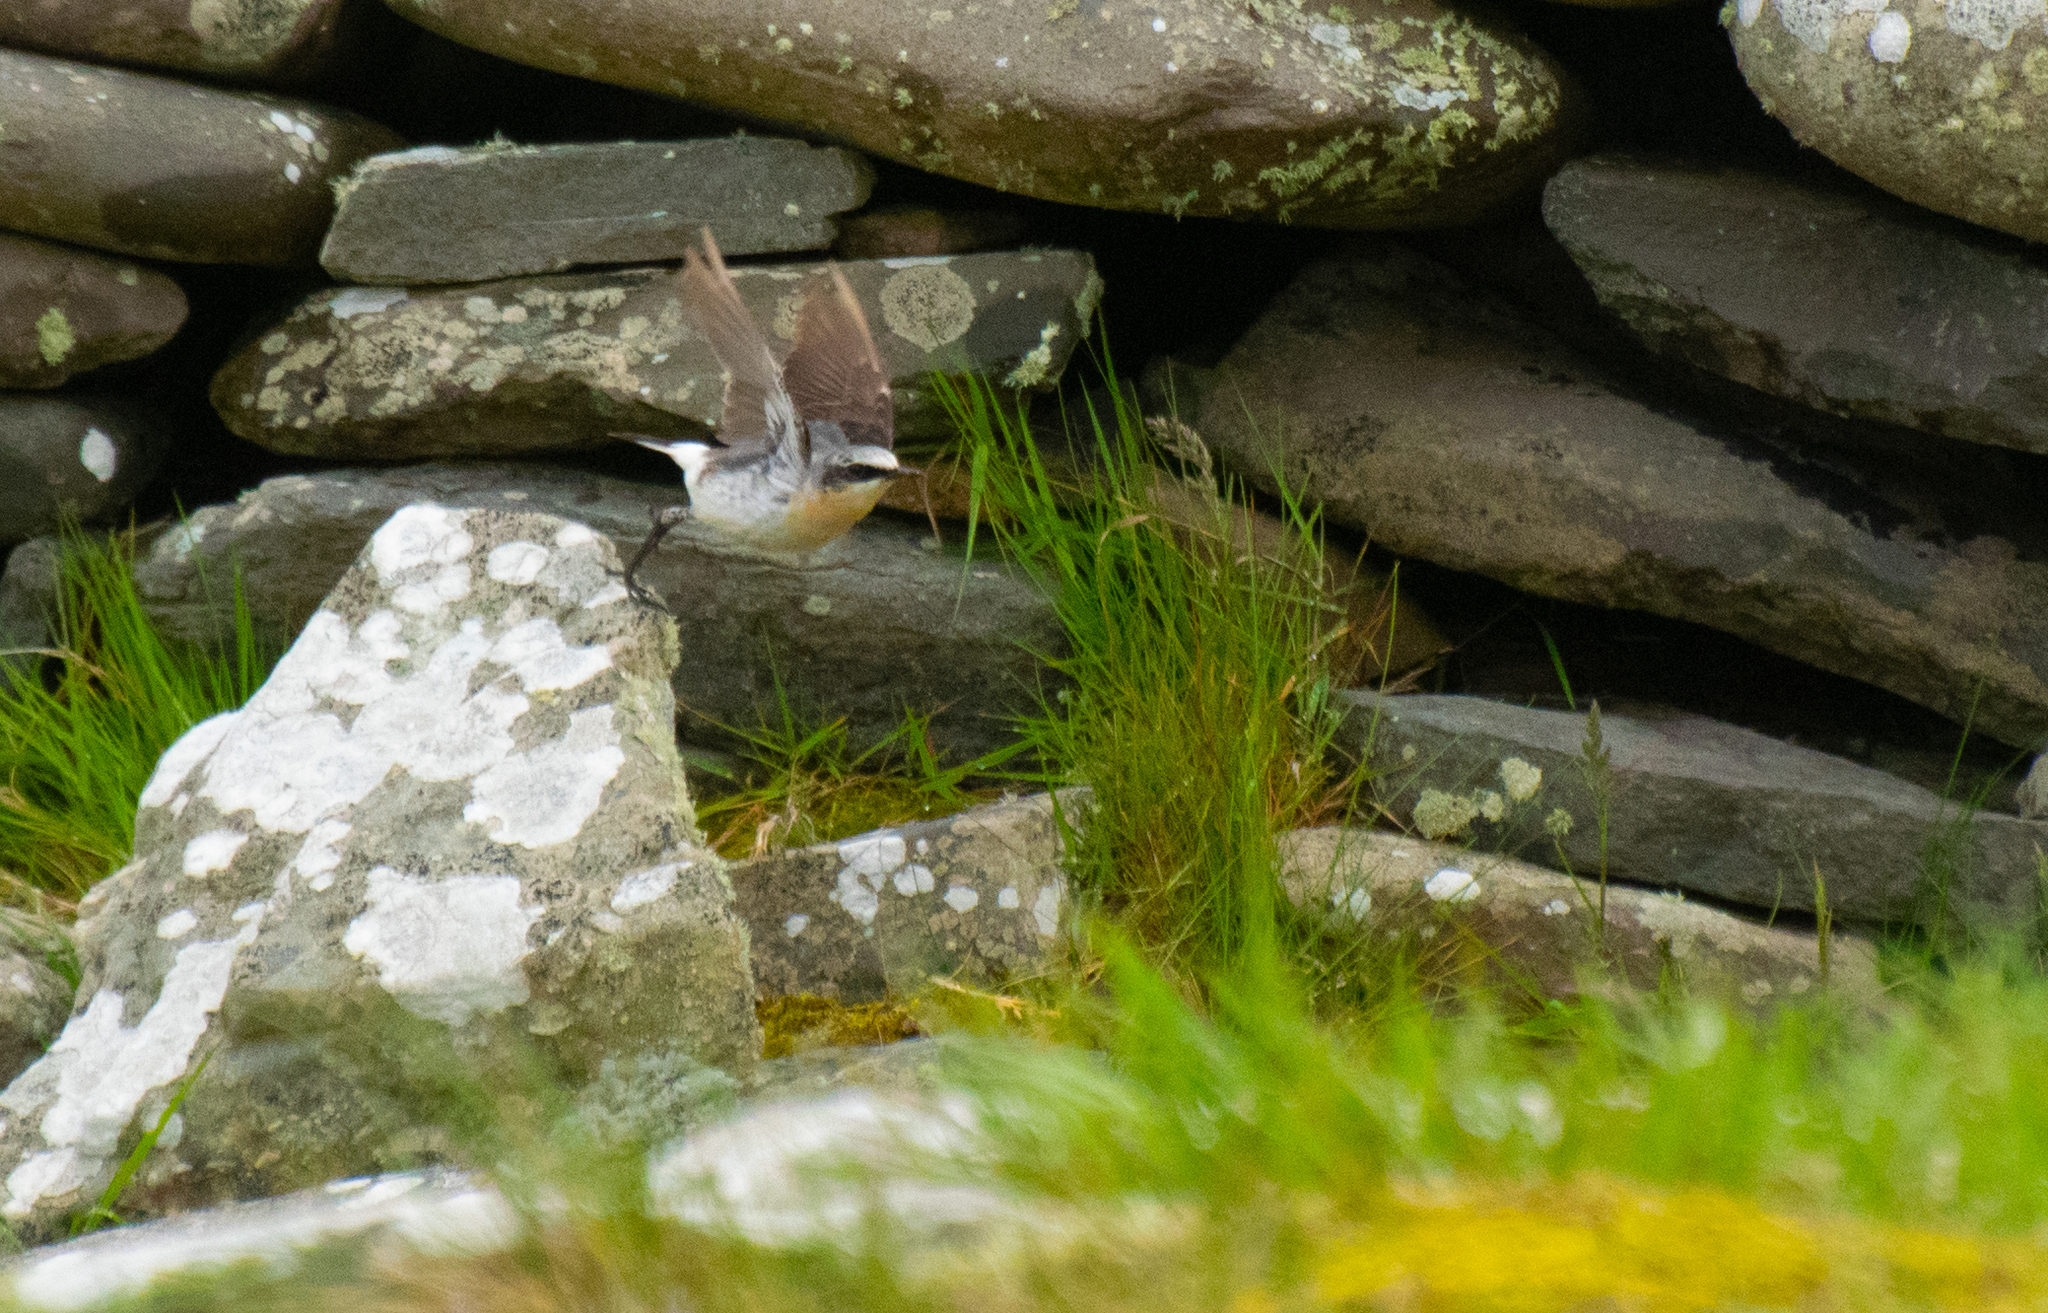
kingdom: Animalia
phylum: Chordata
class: Aves
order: Passeriformes
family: Muscicapidae
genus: Oenanthe
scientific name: Oenanthe oenanthe
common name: Northern wheatear
